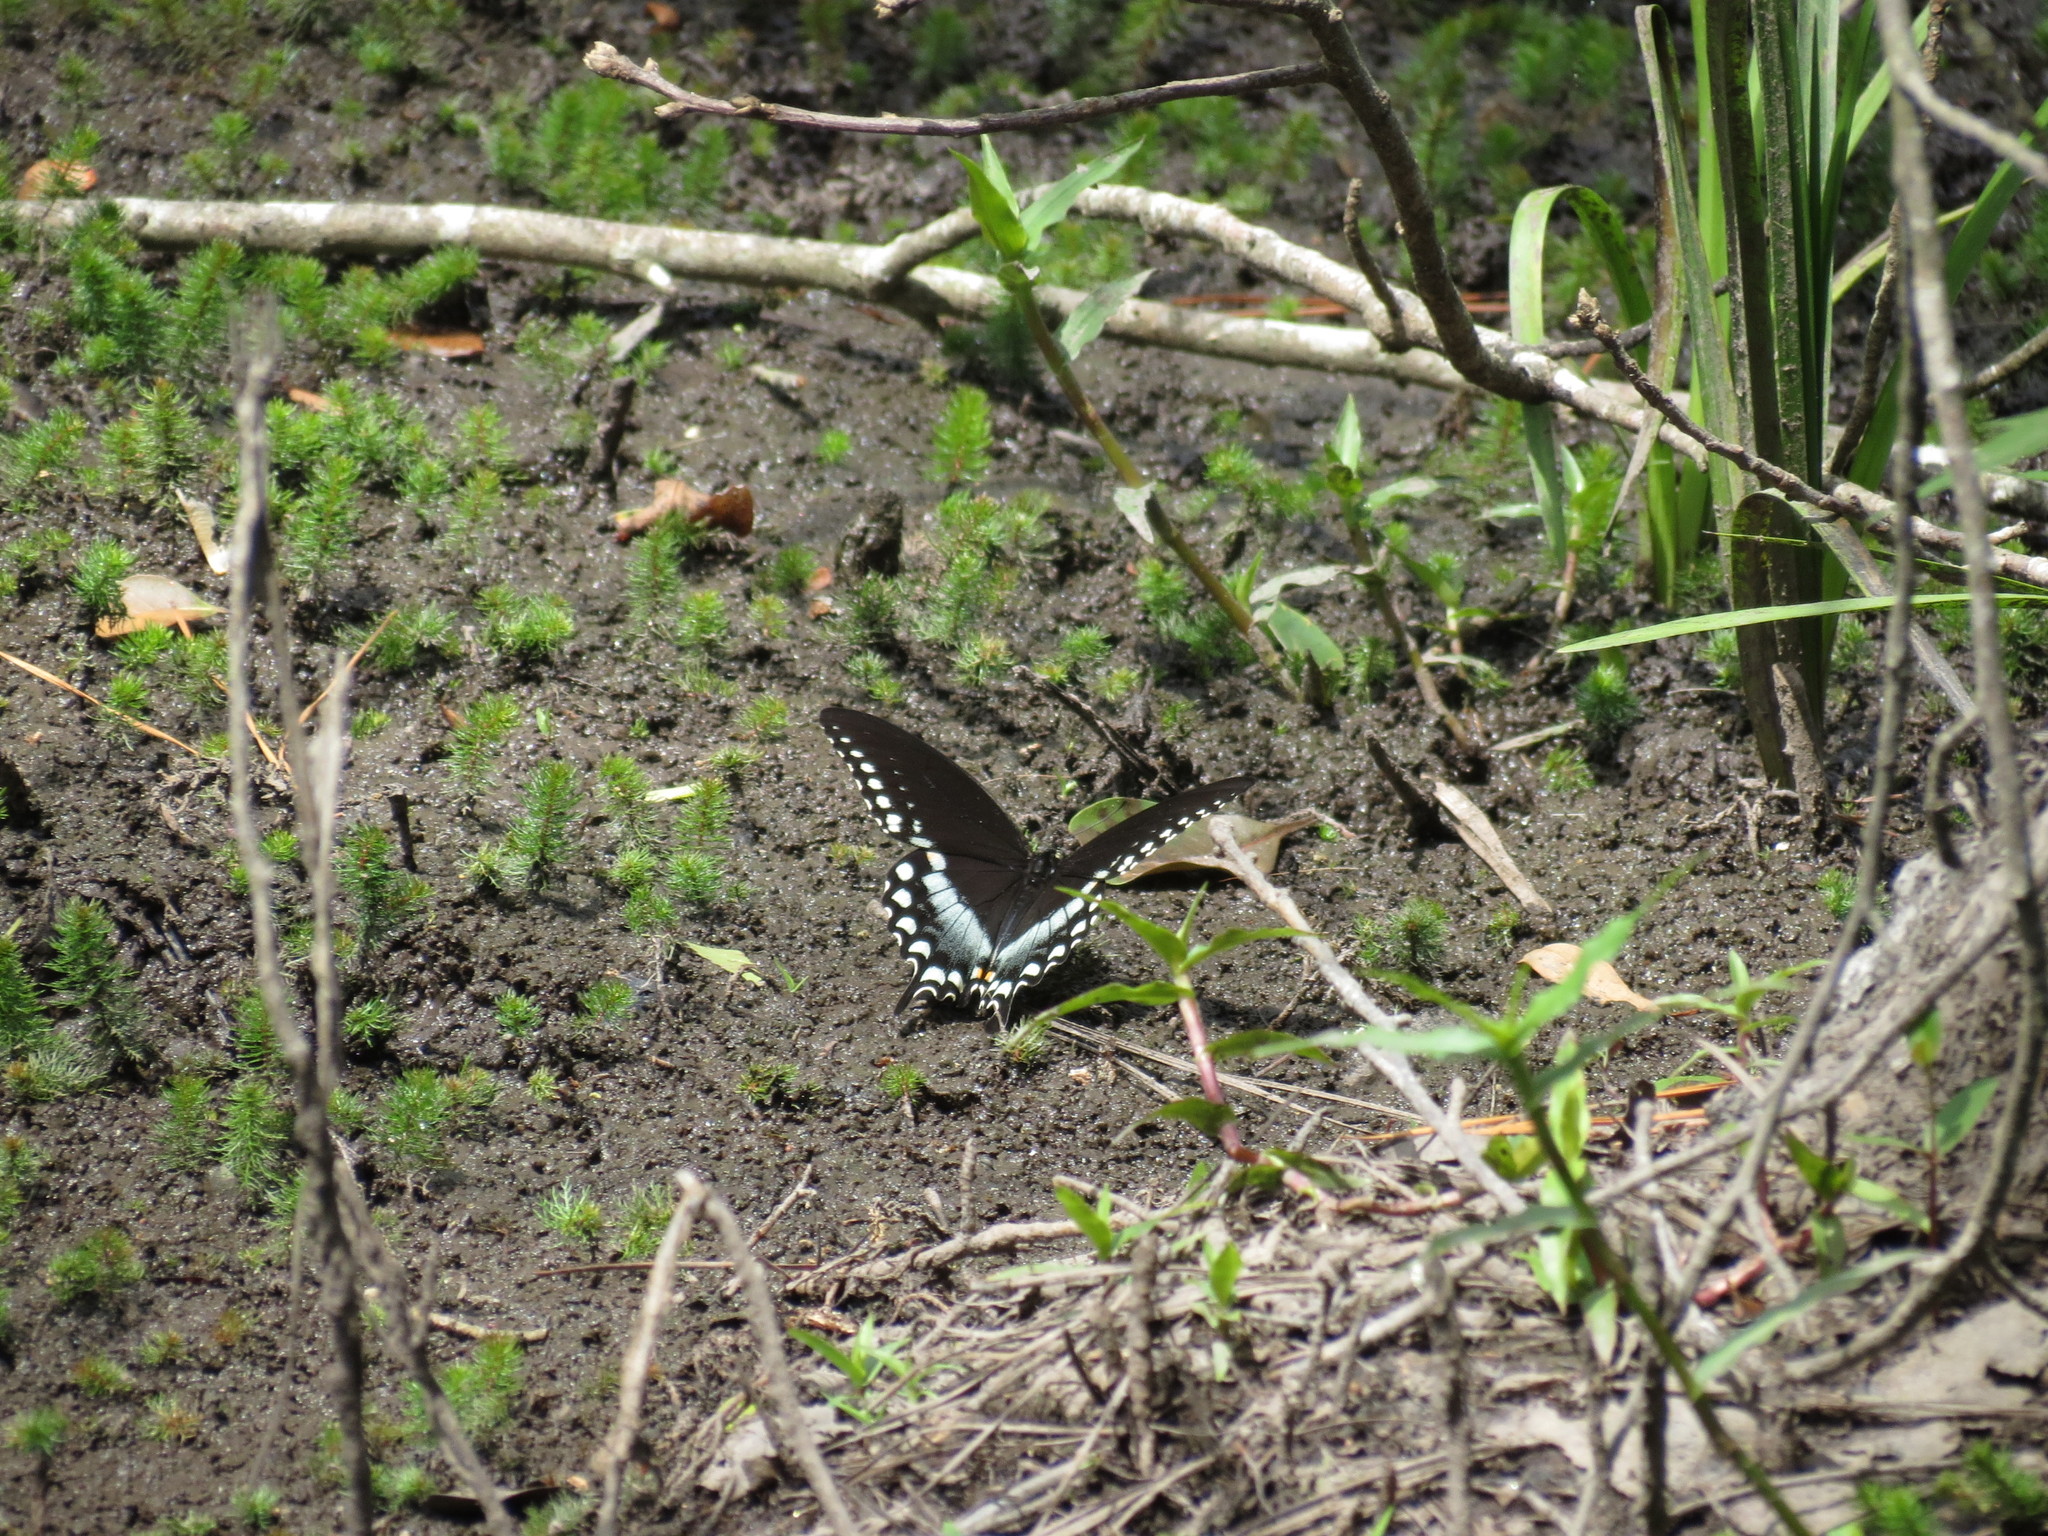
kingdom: Animalia
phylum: Arthropoda
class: Insecta
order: Lepidoptera
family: Papilionidae
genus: Papilio
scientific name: Papilio troilus
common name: Spicebush swallowtail
